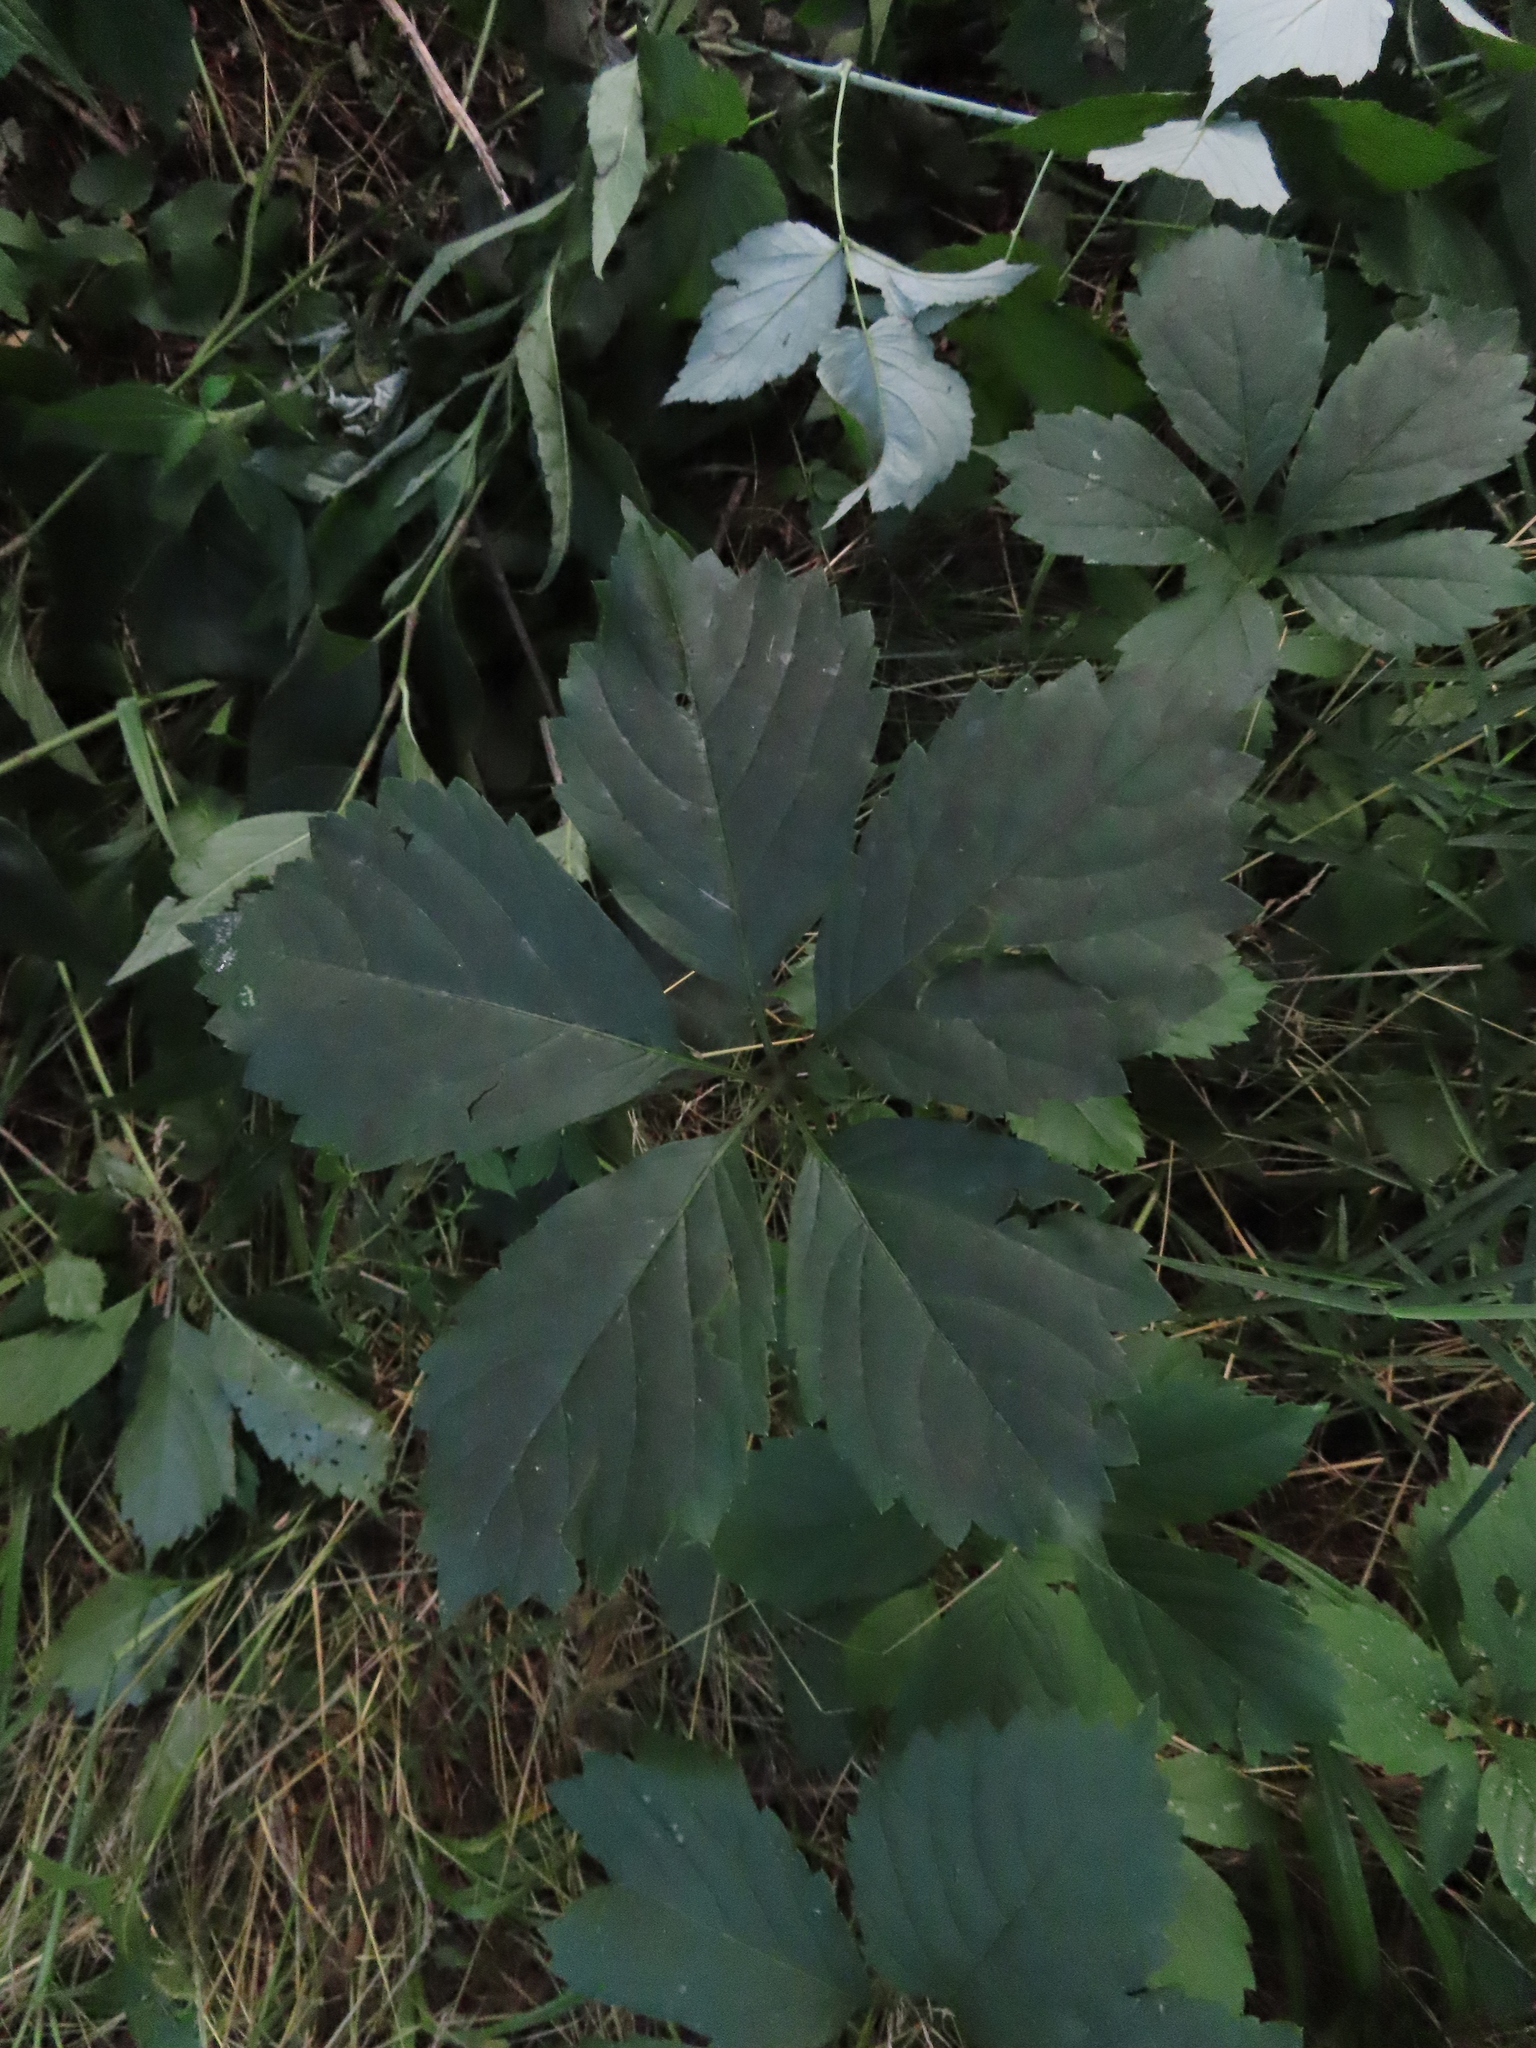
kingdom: Plantae
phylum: Tracheophyta
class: Magnoliopsida
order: Vitales
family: Vitaceae
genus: Parthenocissus
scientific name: Parthenocissus inserta
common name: False virginia-creeper
